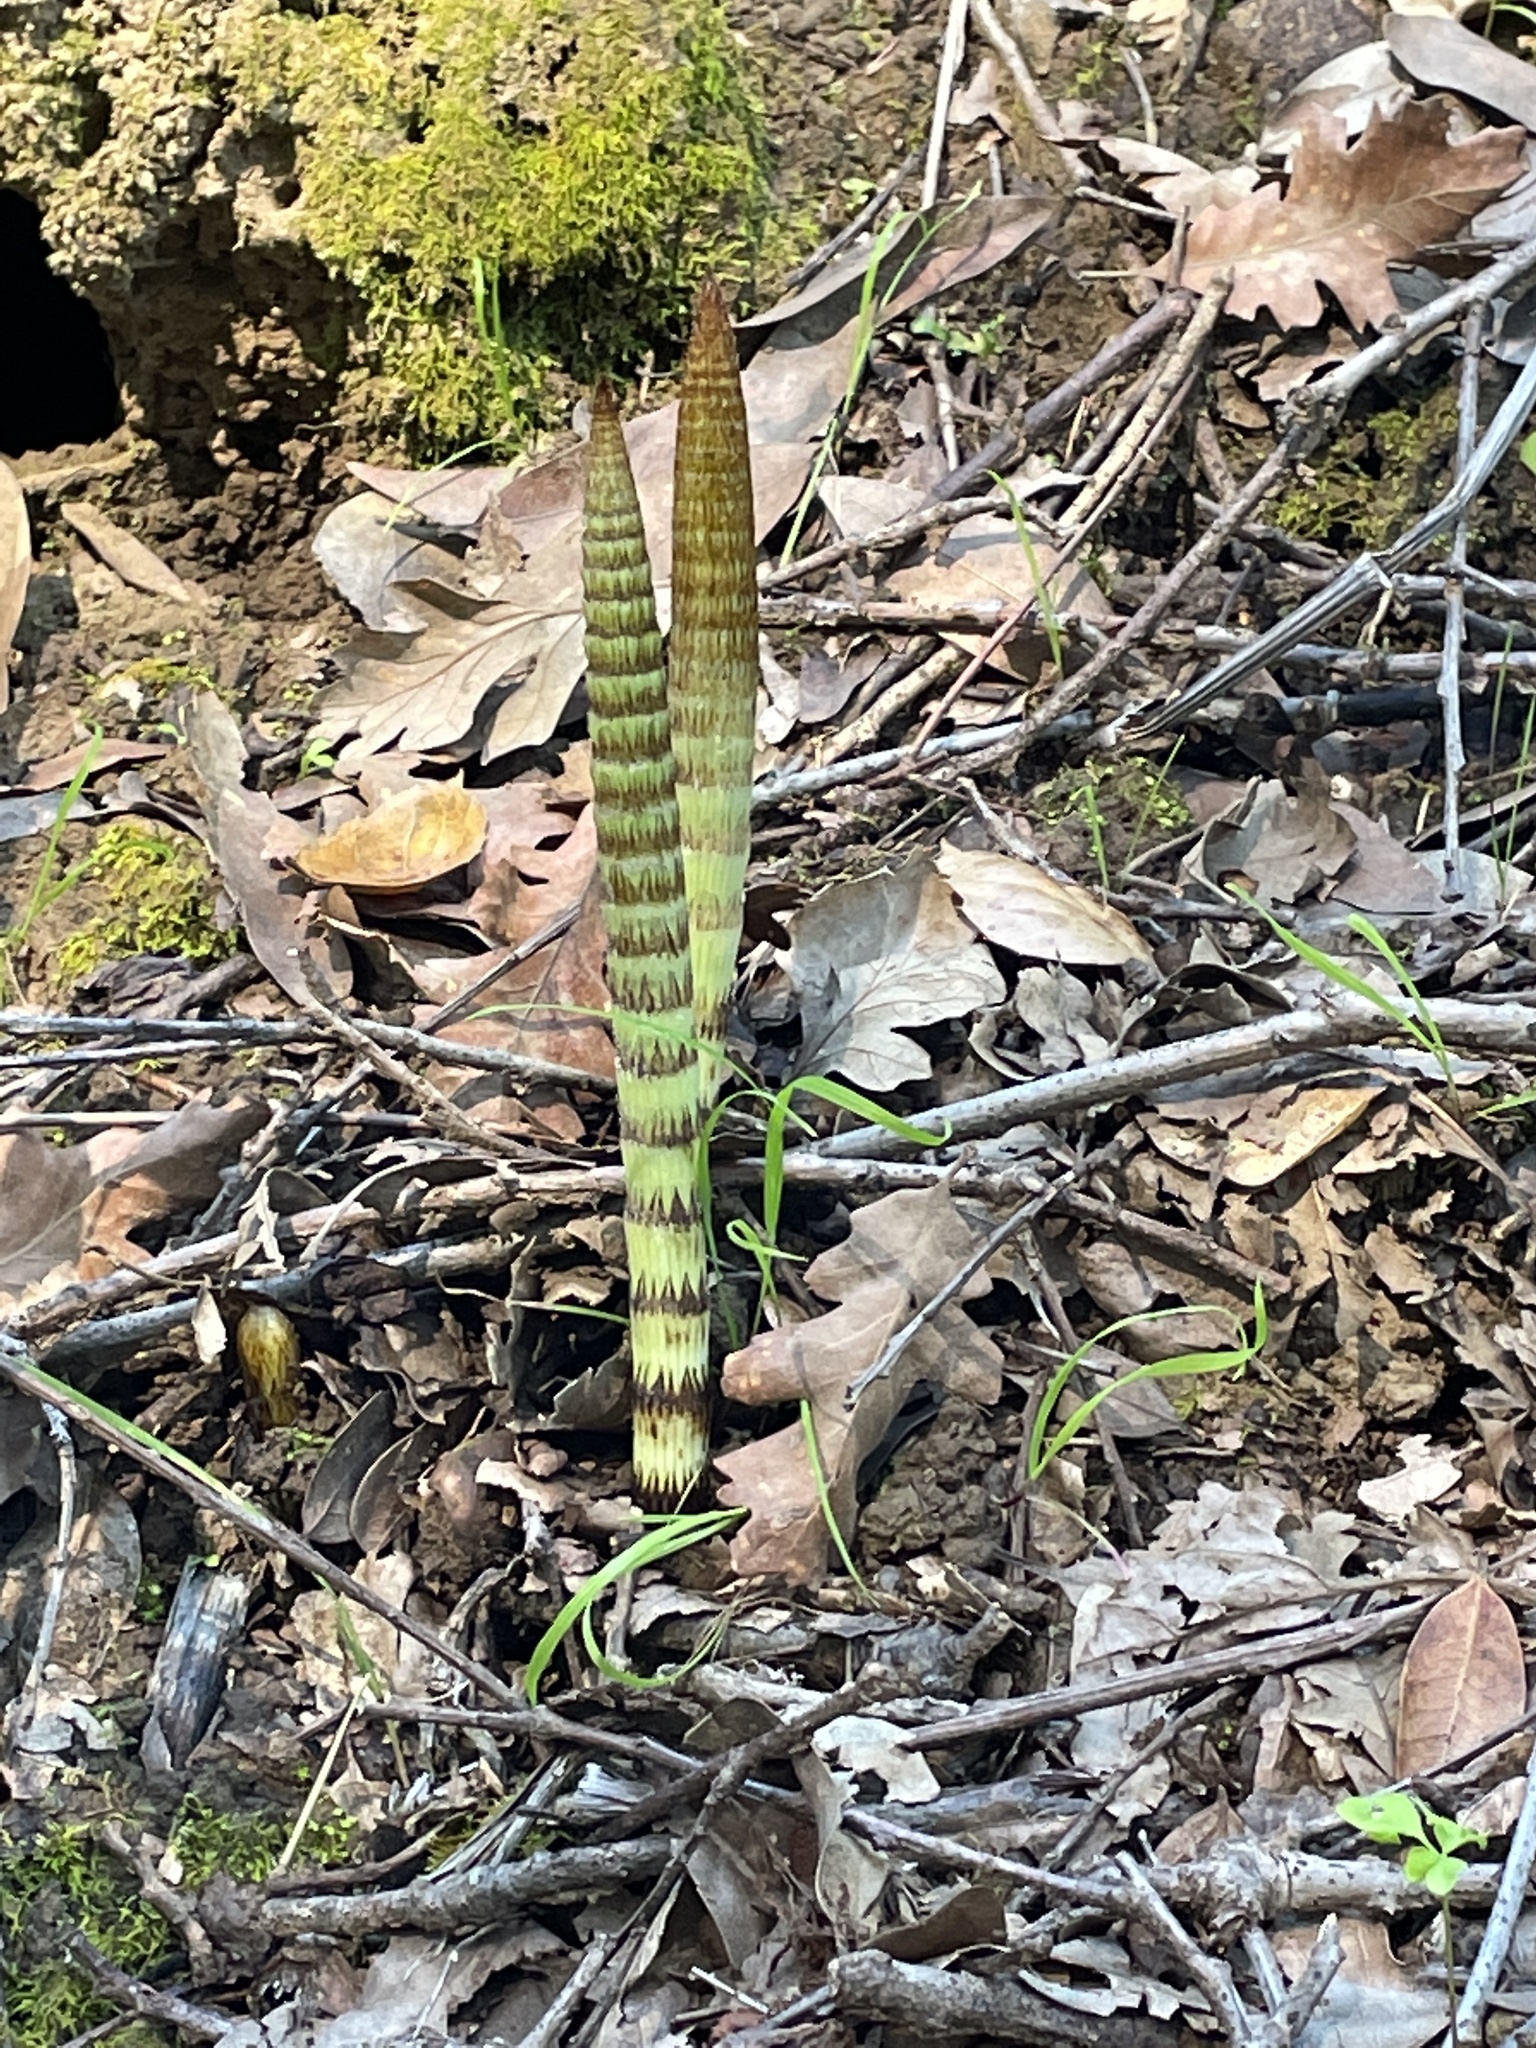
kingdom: Plantae
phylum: Tracheophyta
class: Polypodiopsida
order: Equisetales
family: Equisetaceae
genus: Equisetum
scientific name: Equisetum telmateia
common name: Great horsetail
